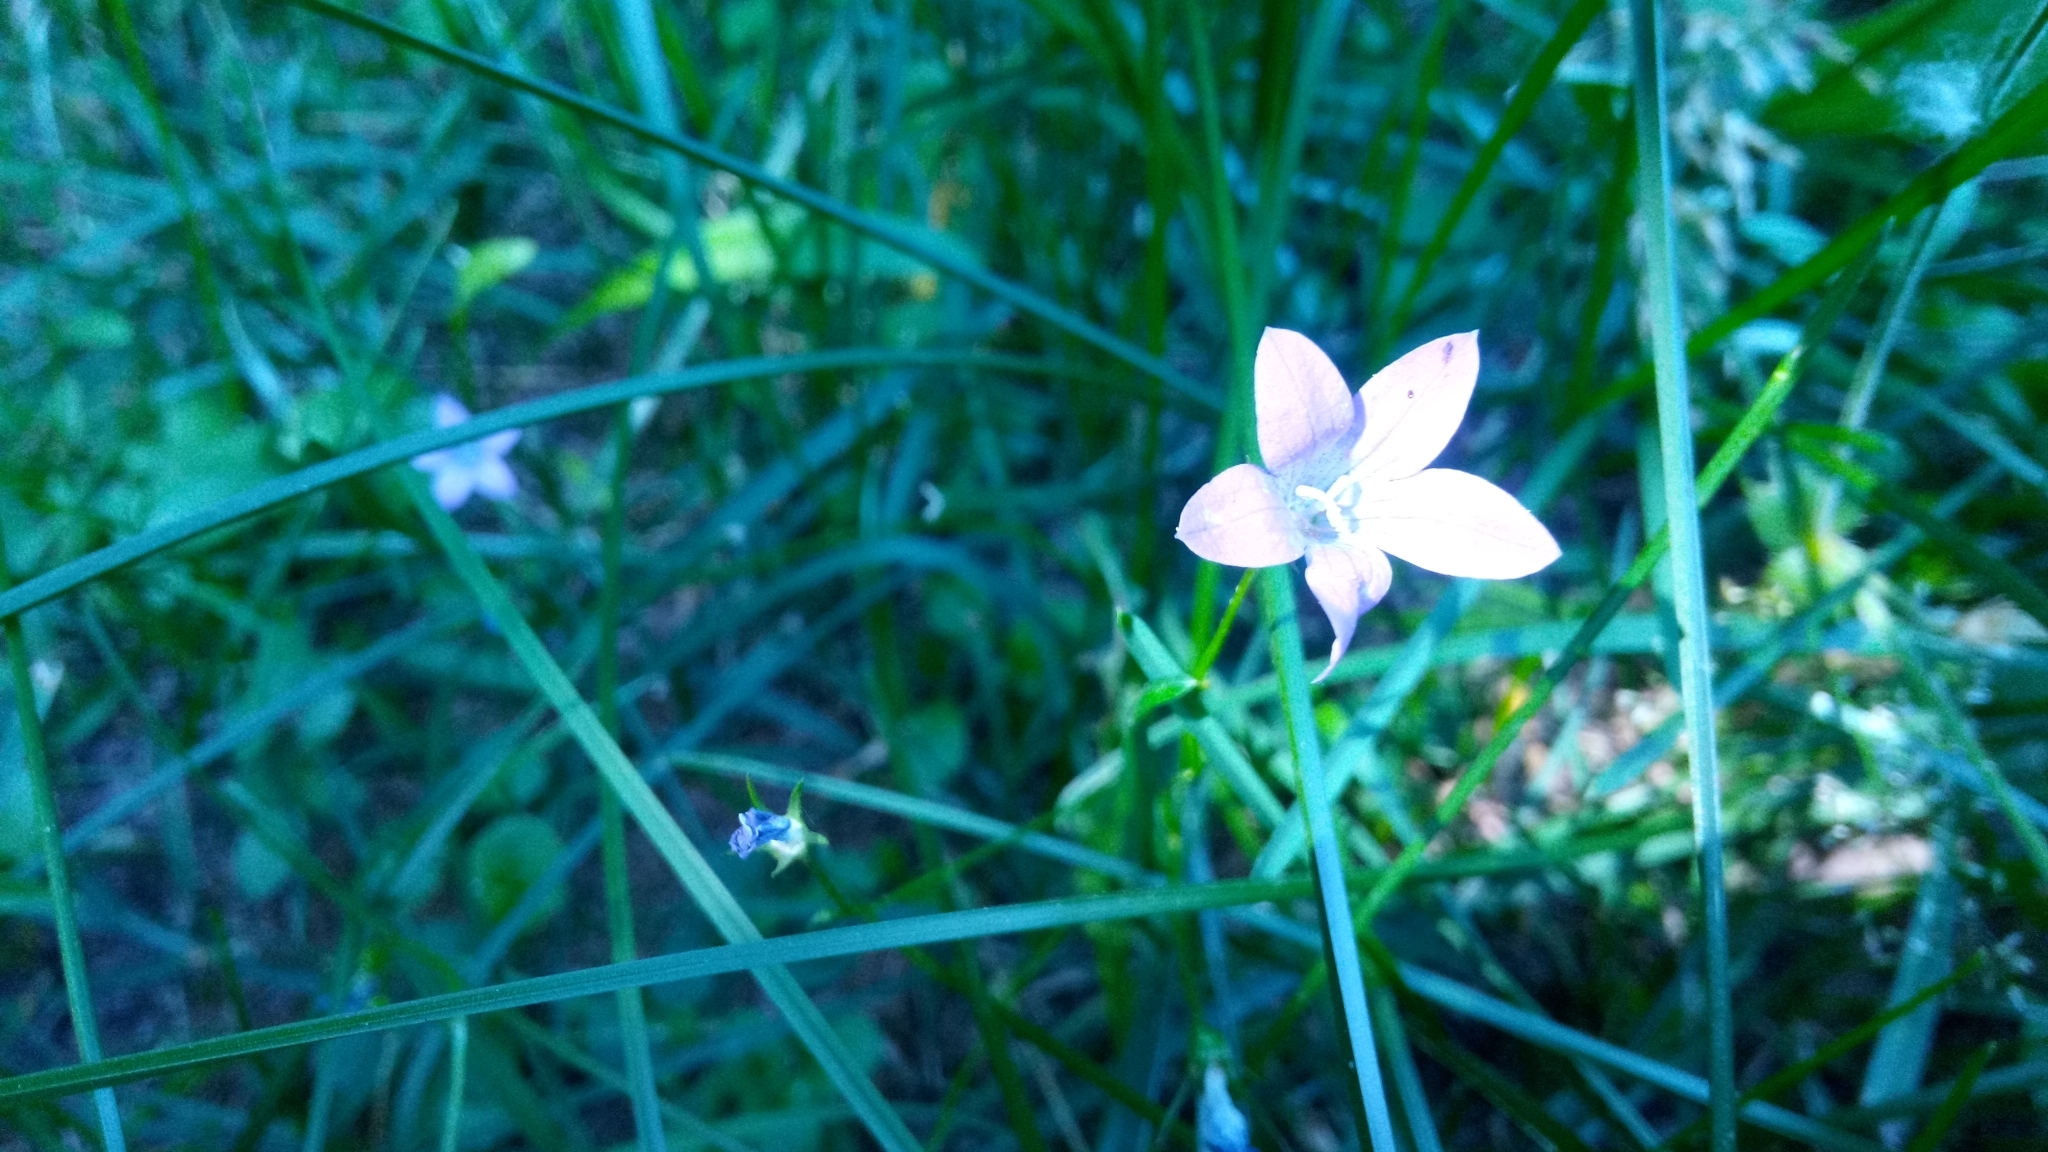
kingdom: Plantae
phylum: Tracheophyta
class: Magnoliopsida
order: Asterales
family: Campanulaceae
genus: Campanula
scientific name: Campanula patula
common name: Spreading bellflower
